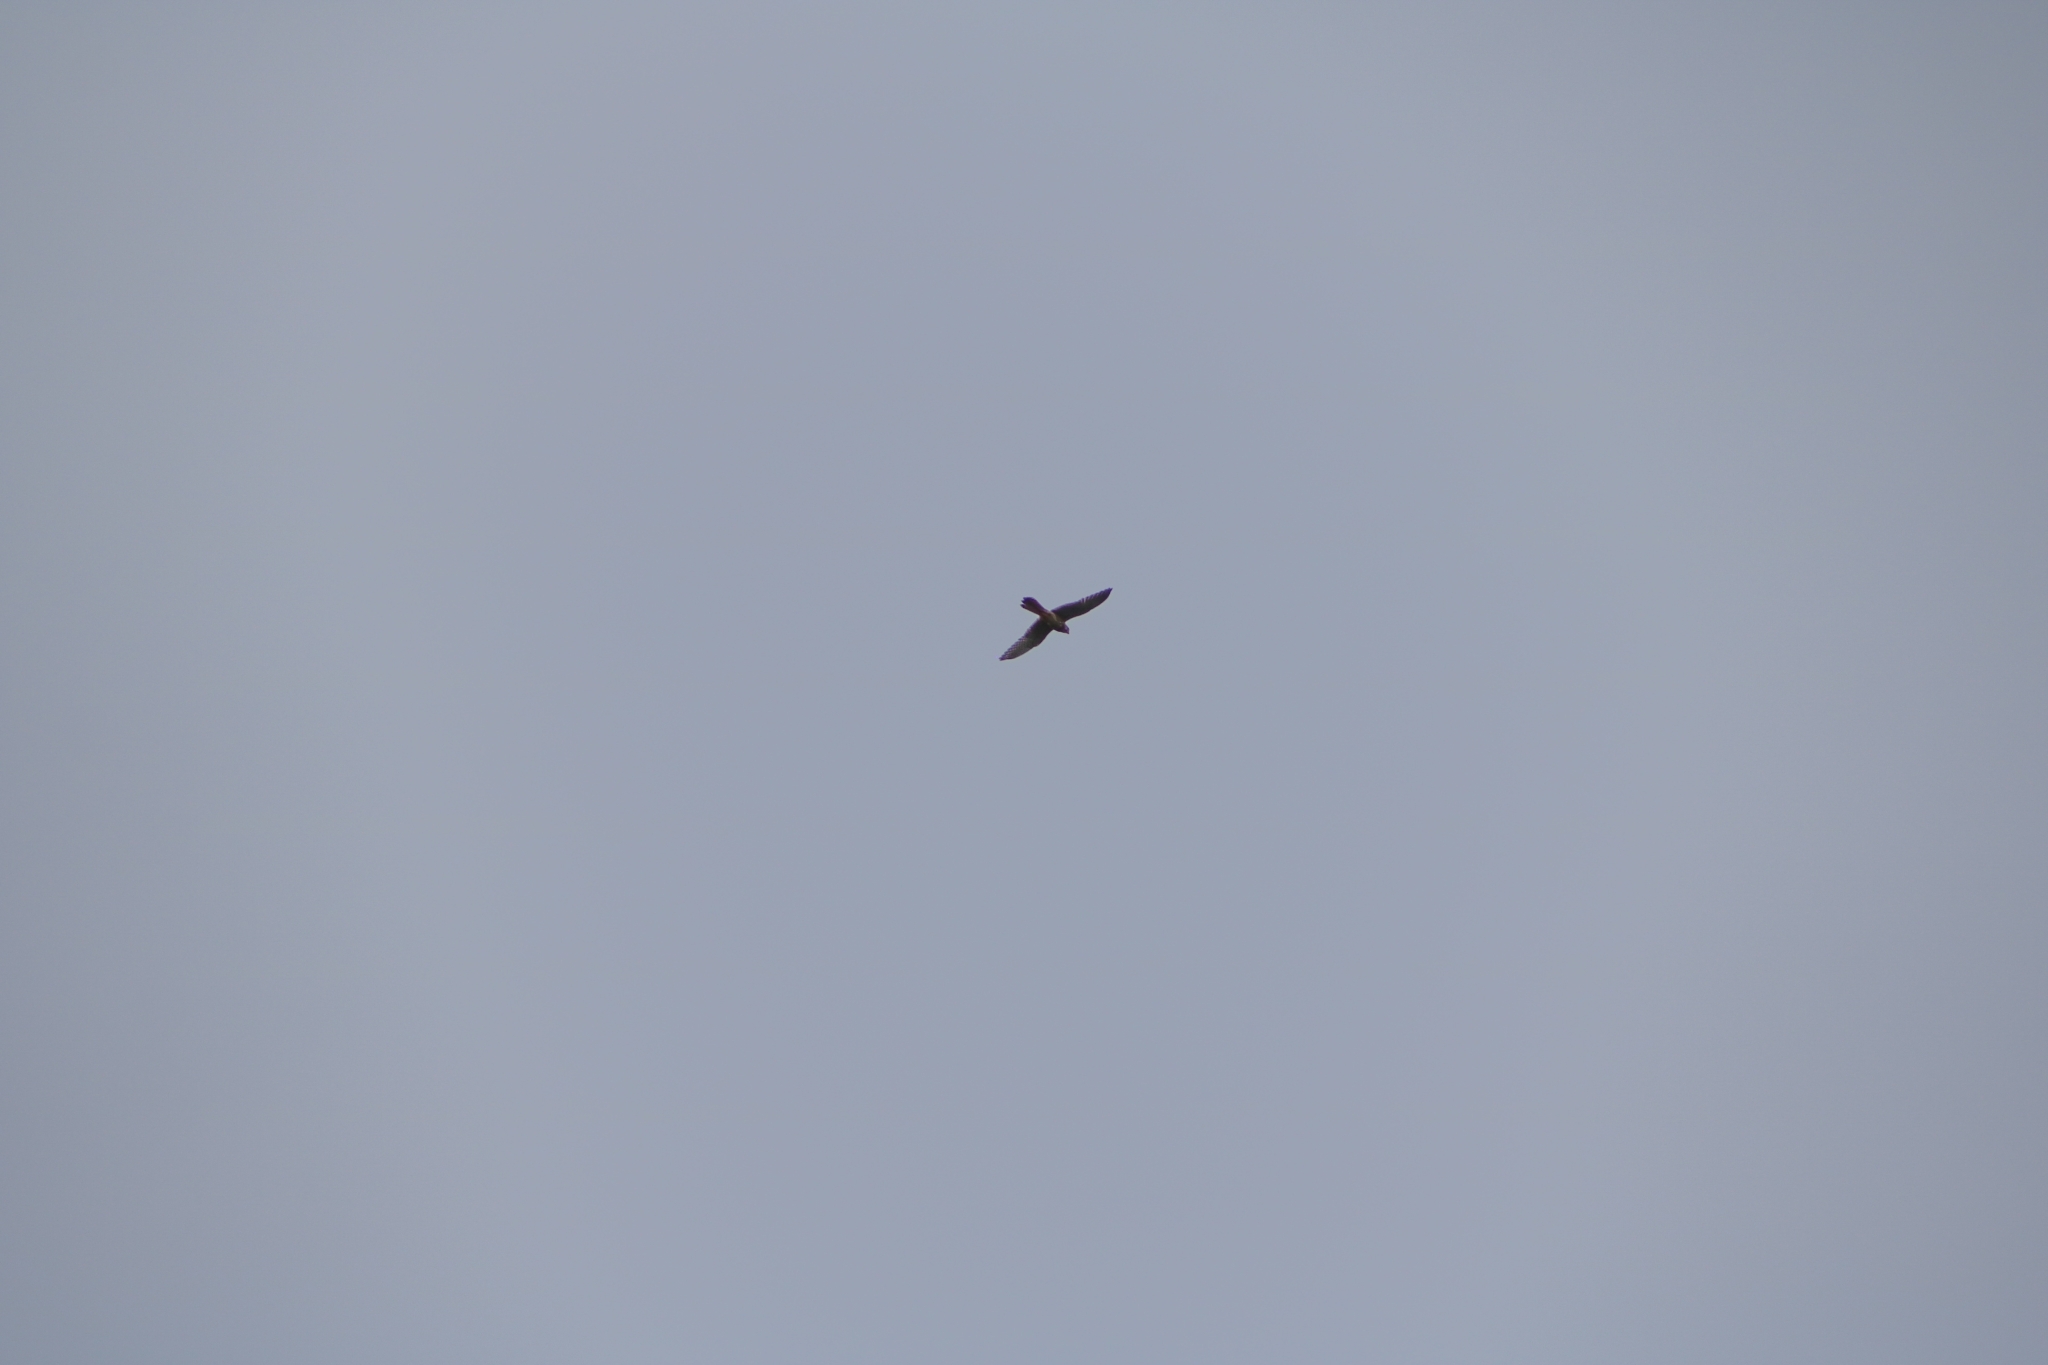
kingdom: Animalia
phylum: Chordata
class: Aves
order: Falconiformes
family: Falconidae
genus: Falco
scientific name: Falco tinnunculus
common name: Common kestrel
